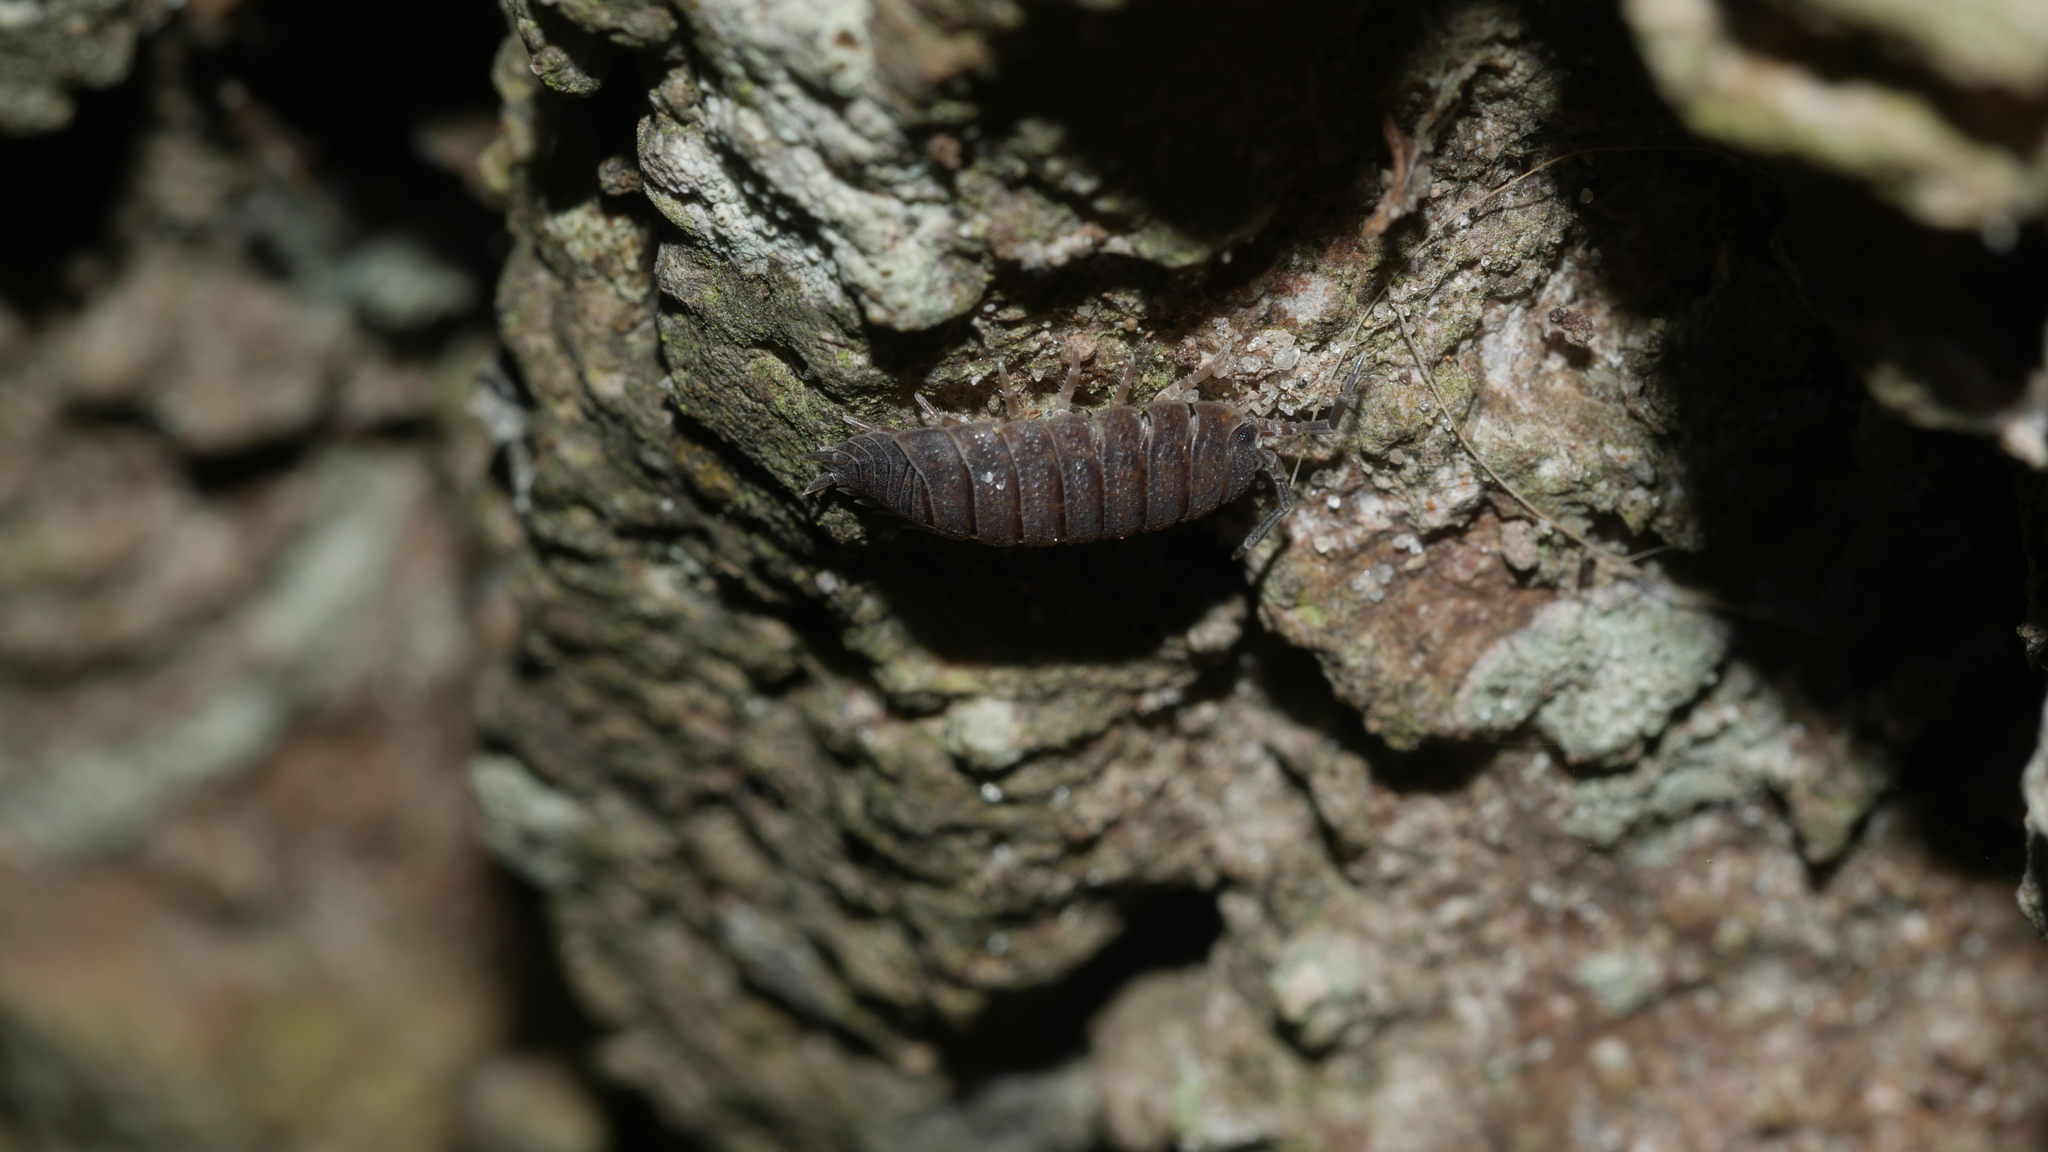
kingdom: Animalia
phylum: Arthropoda
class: Malacostraca
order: Isopoda
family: Porcellionidae
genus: Porcellio
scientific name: Porcellio scaber
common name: Common rough woodlouse
